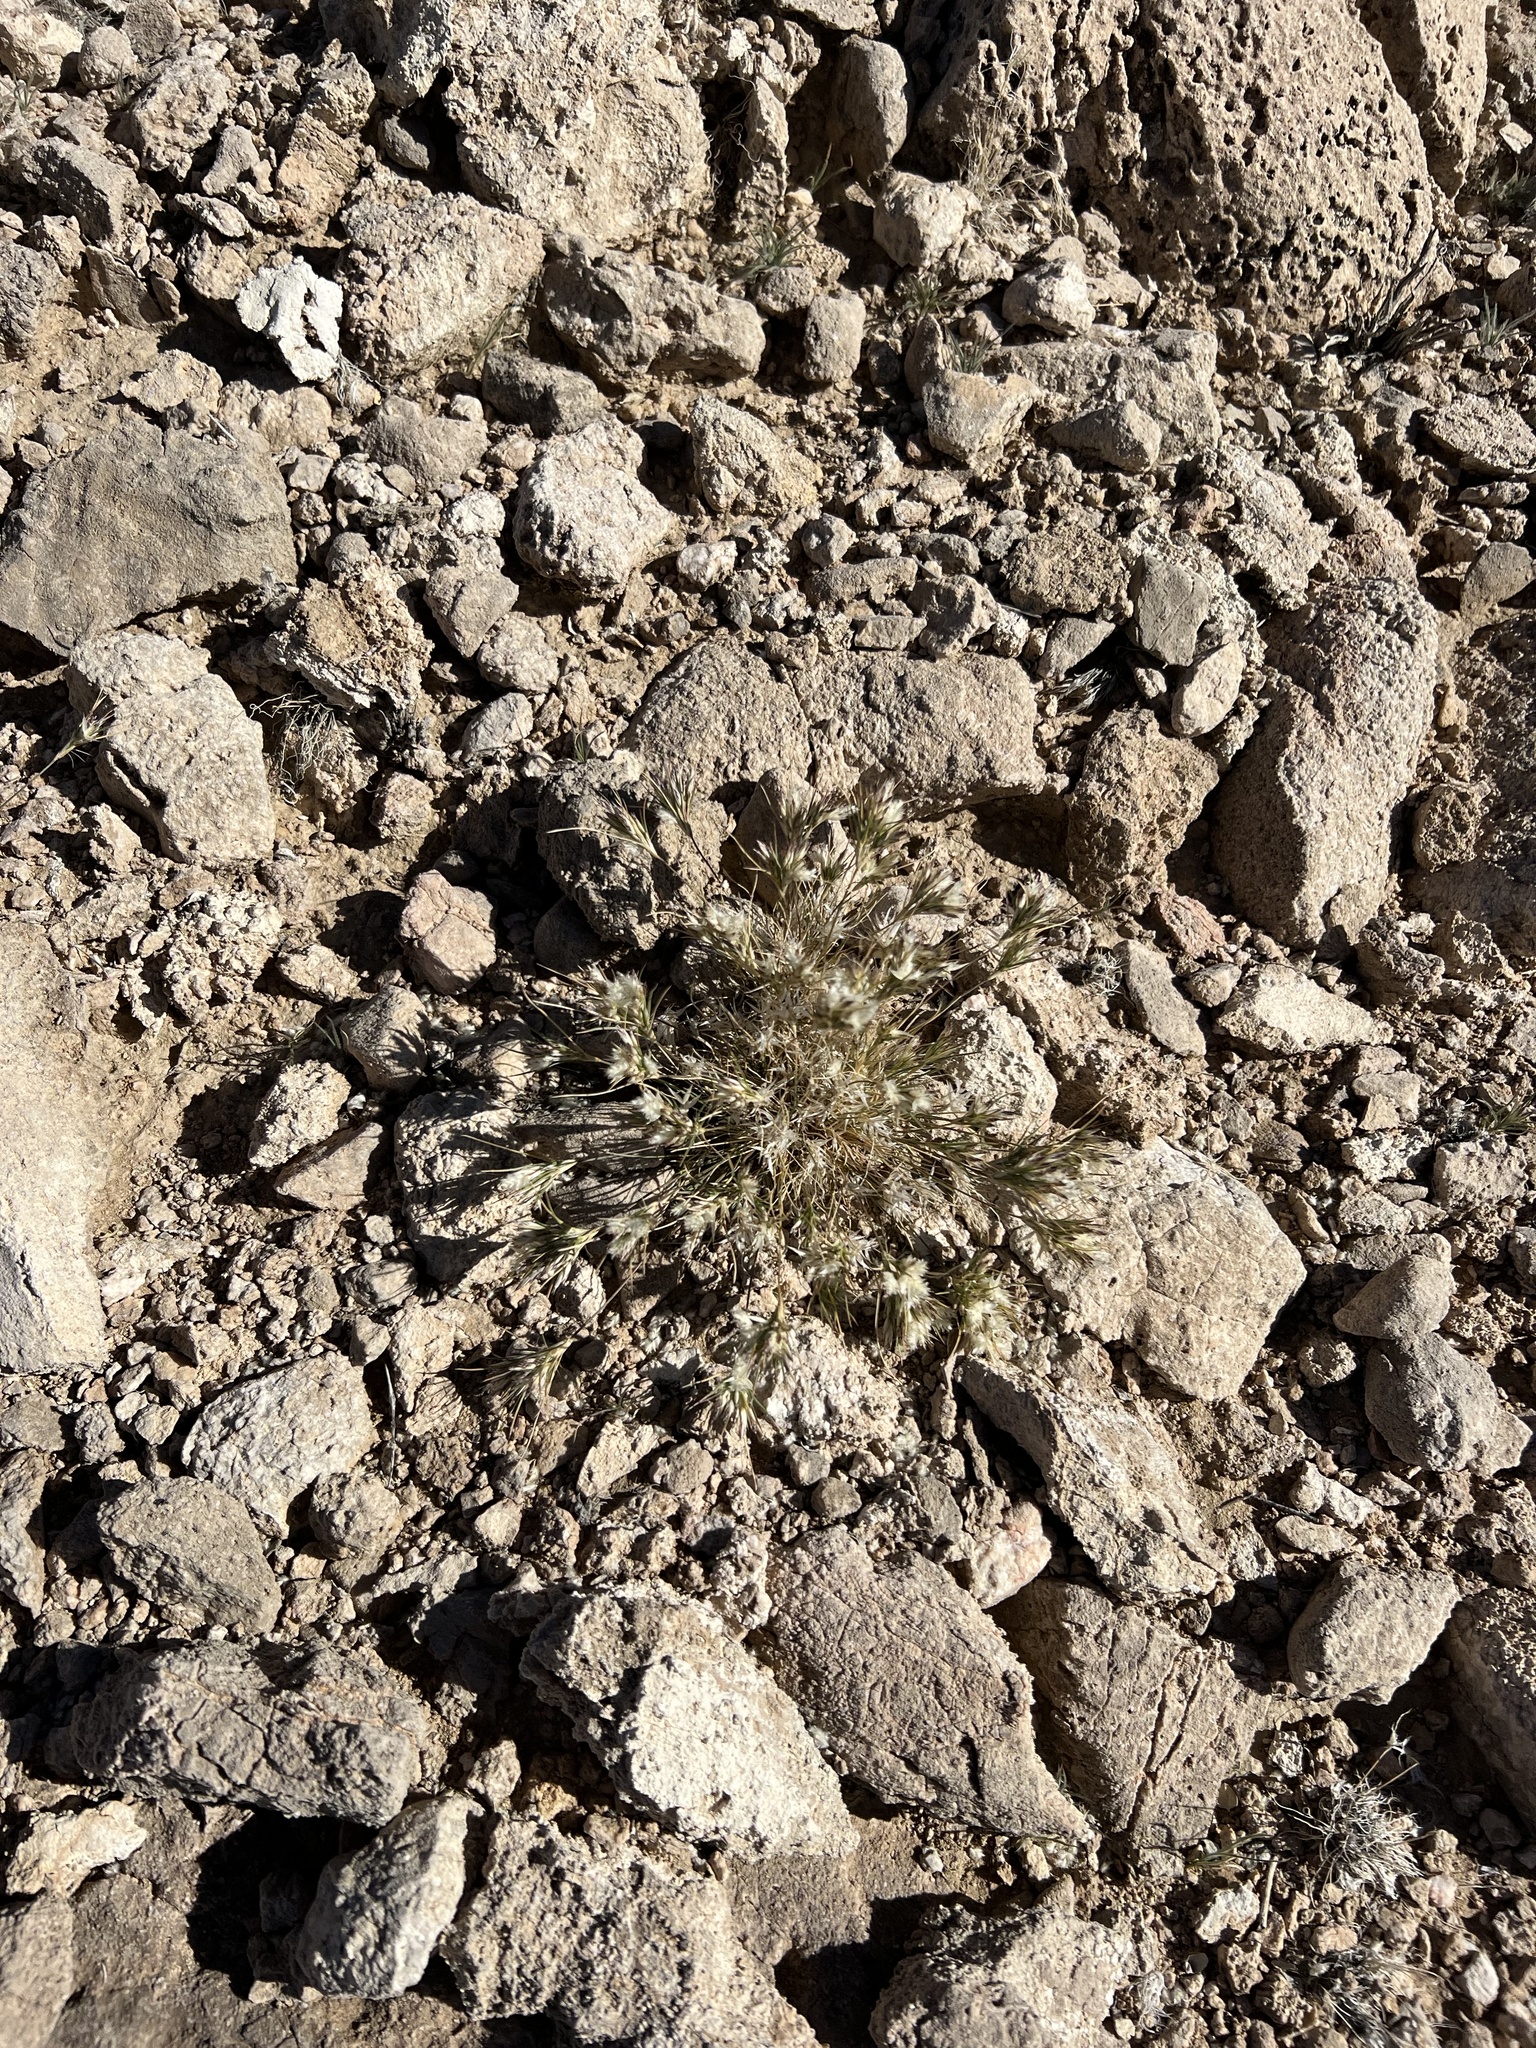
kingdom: Plantae
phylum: Tracheophyta
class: Liliopsida
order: Poales
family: Poaceae
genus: Dasyochloa
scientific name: Dasyochloa pulchella
